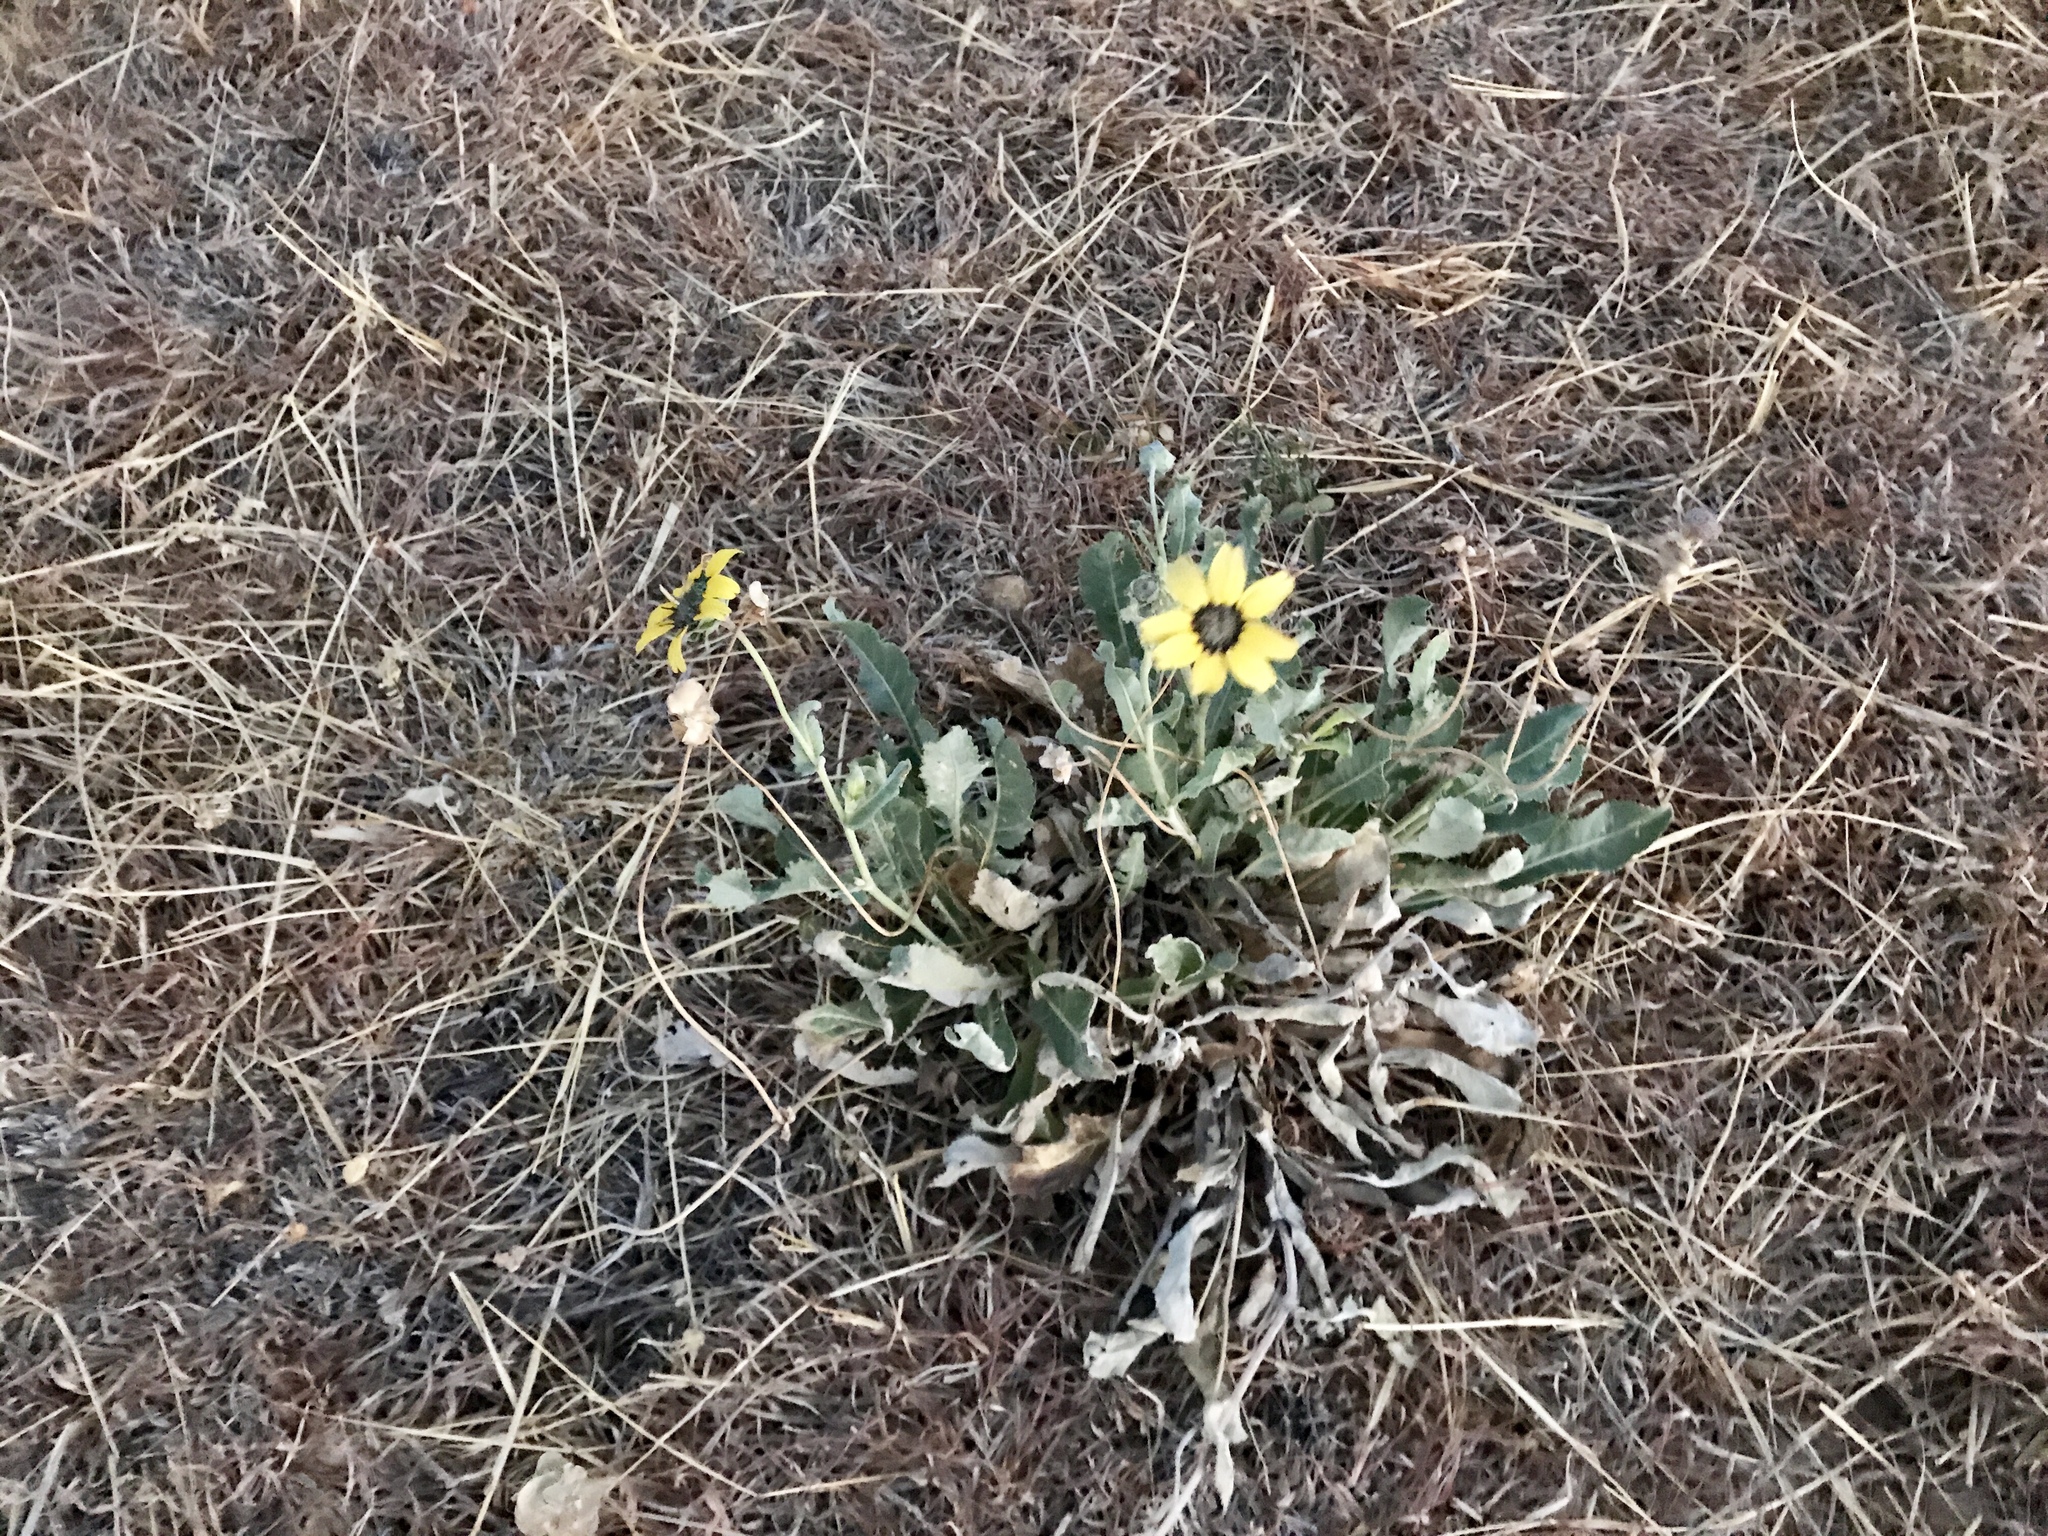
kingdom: Plantae
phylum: Tracheophyta
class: Magnoliopsida
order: Asterales
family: Asteraceae
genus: Berlandiera
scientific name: Berlandiera lyrata
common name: Chocolate-flower
